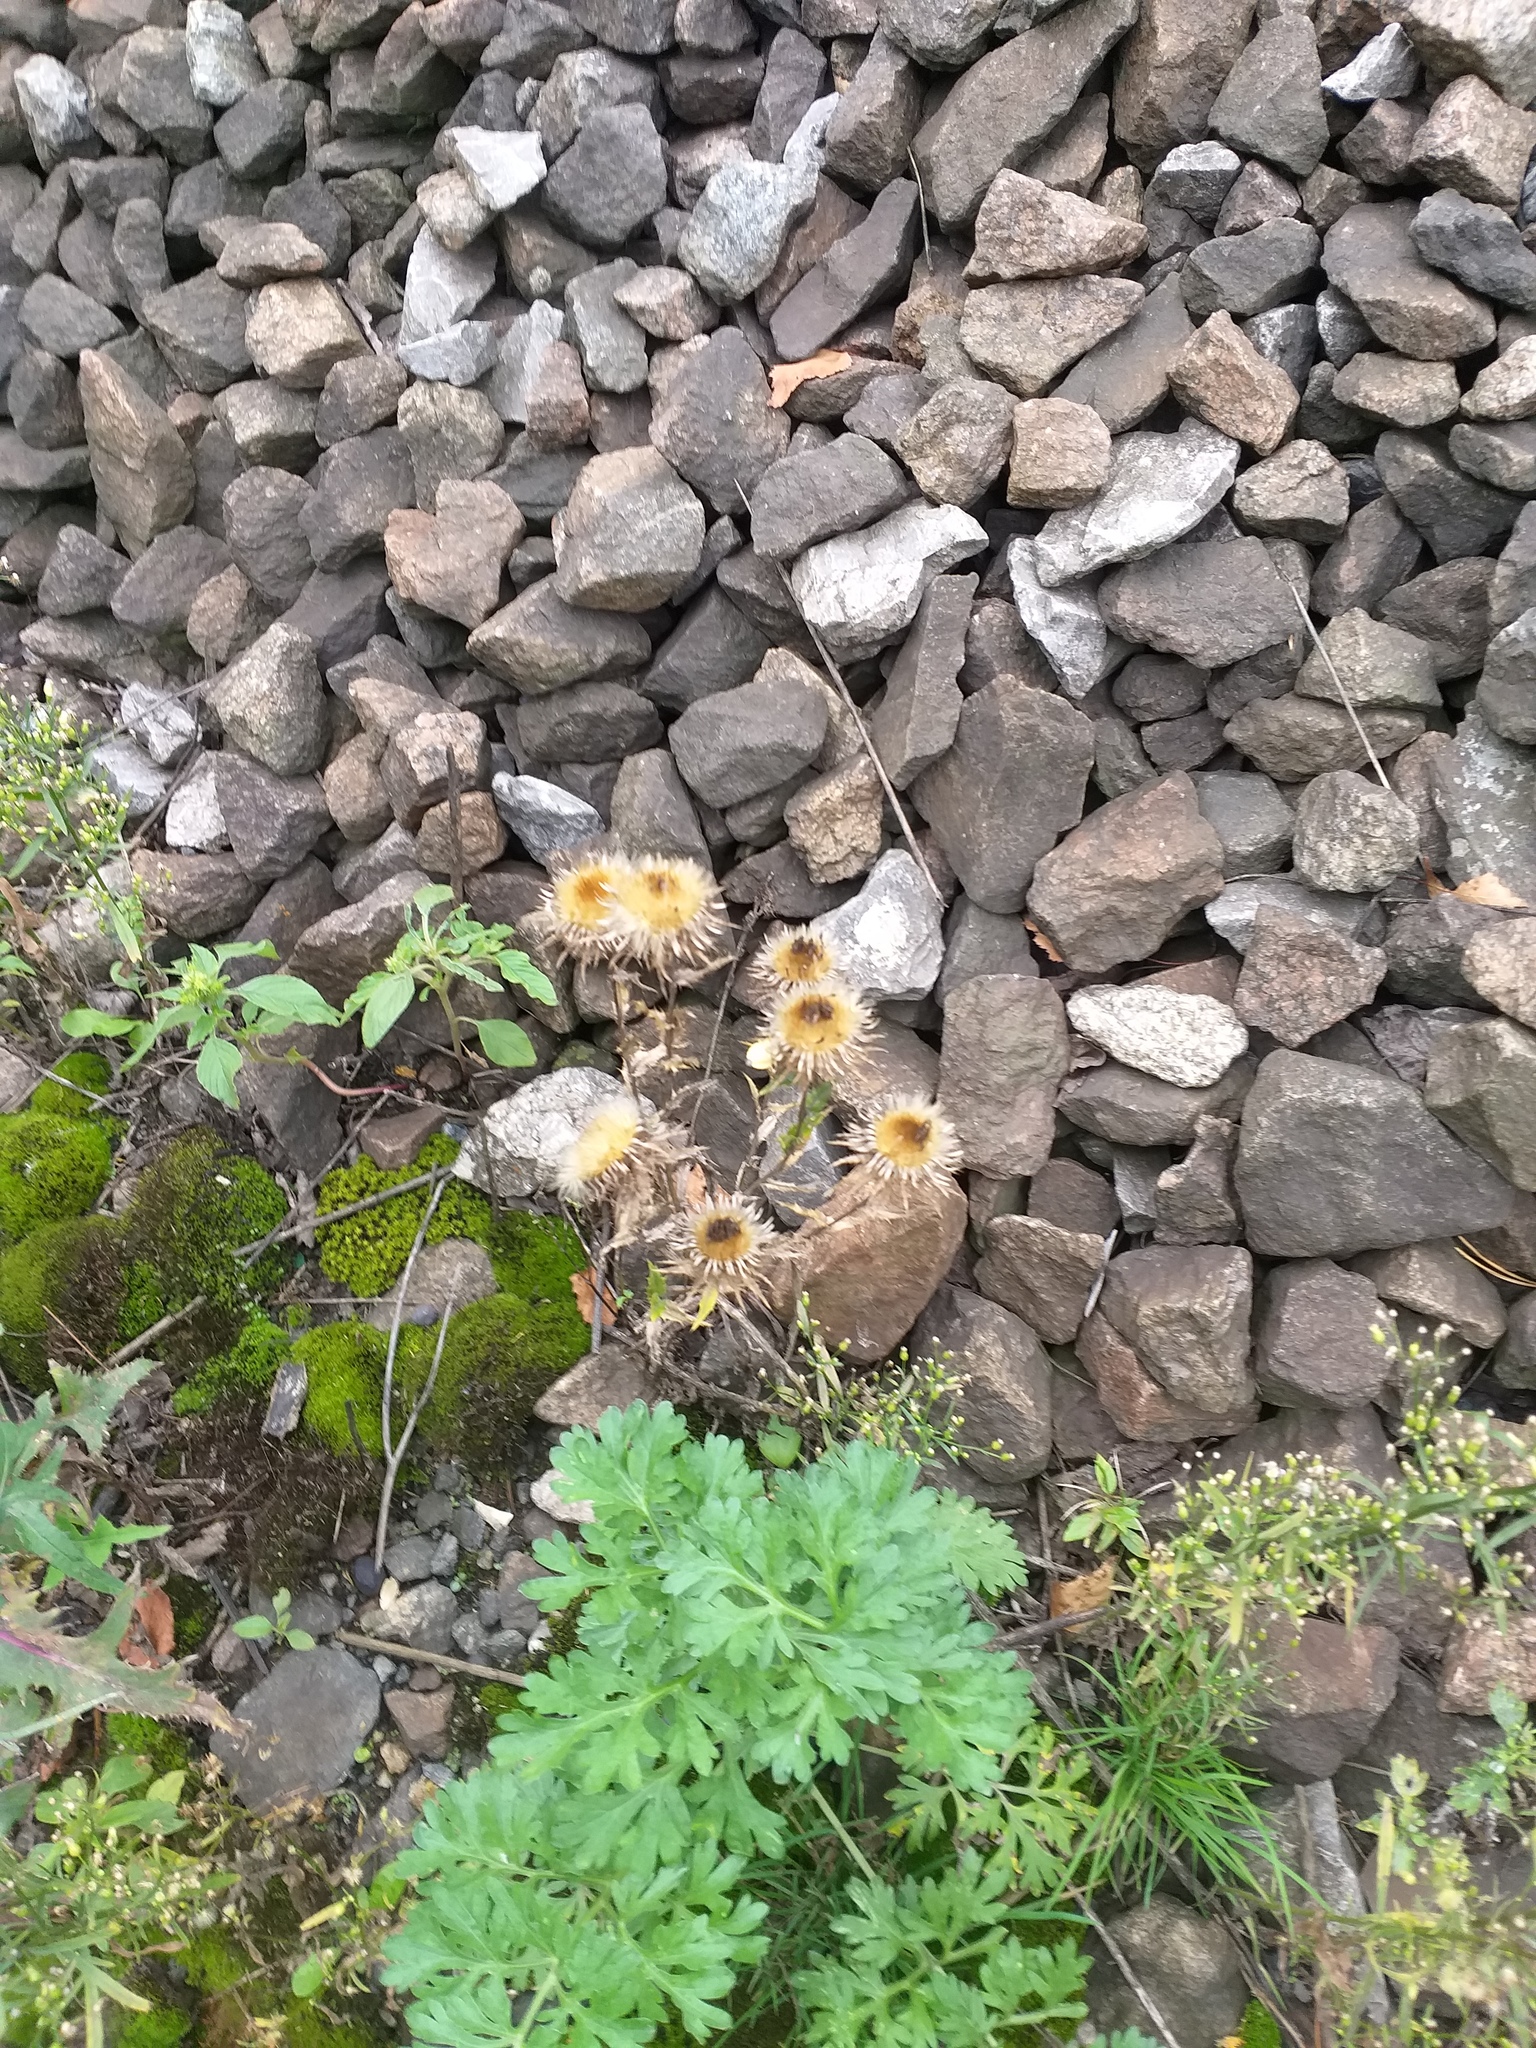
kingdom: Plantae
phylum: Tracheophyta
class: Magnoliopsida
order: Asterales
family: Asteraceae
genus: Carlina
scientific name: Carlina biebersteinii
